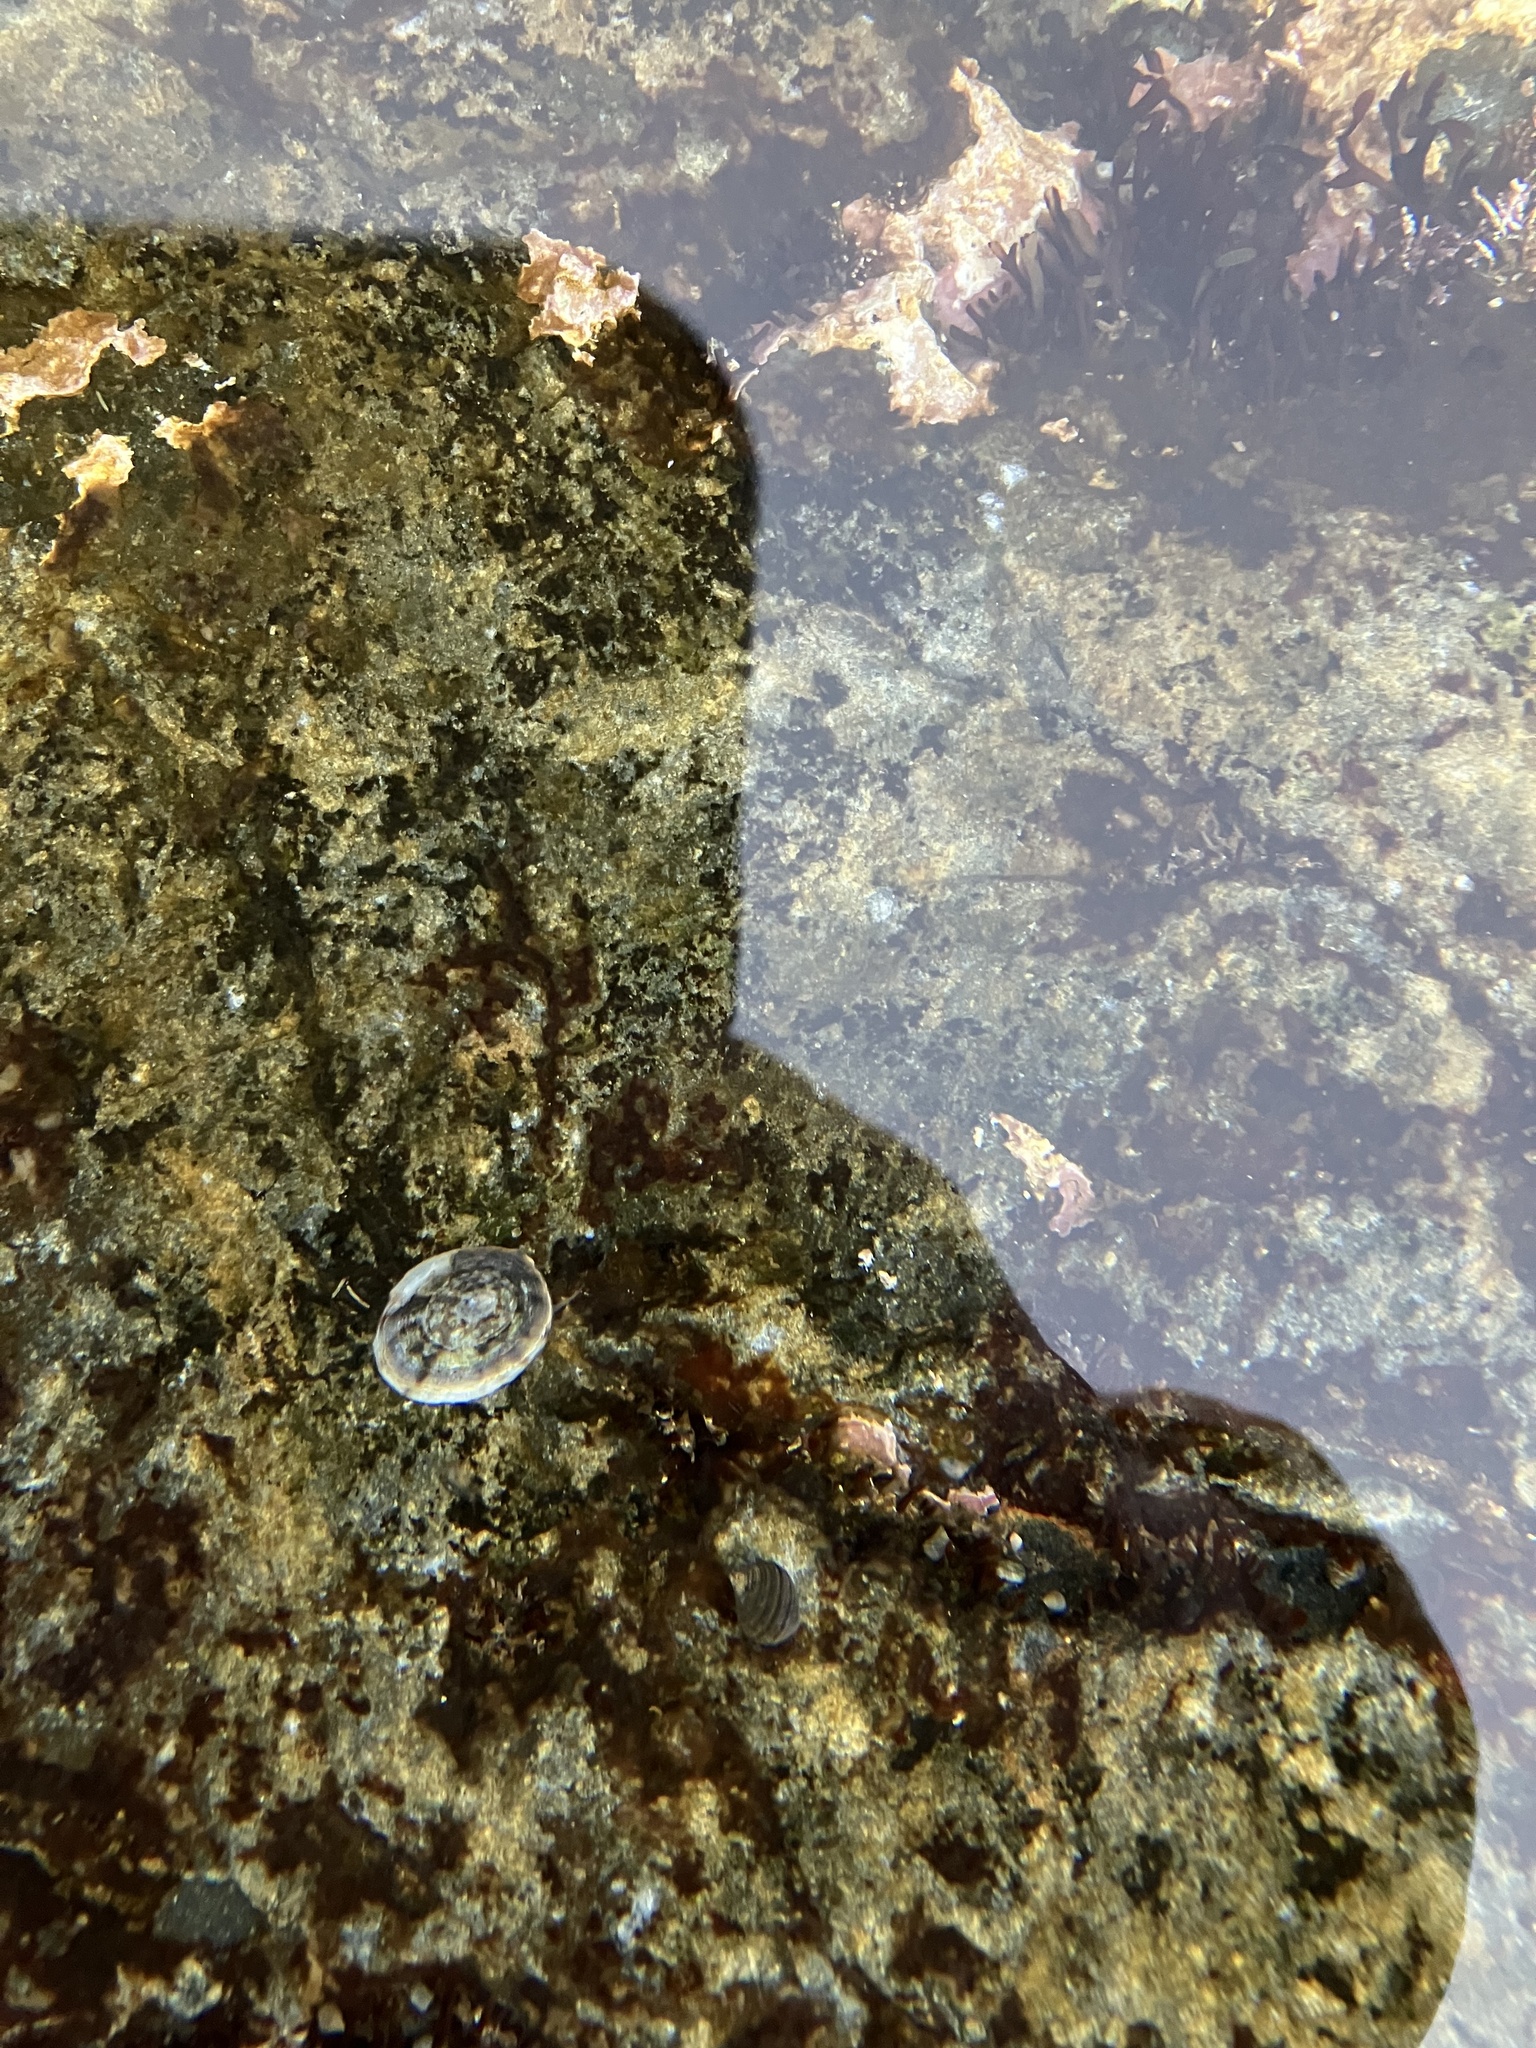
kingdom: Animalia
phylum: Mollusca
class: Gastropoda
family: Lottiidae
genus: Testudinalia
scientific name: Testudinalia testudinalis
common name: Common tortoiseshell limpet
